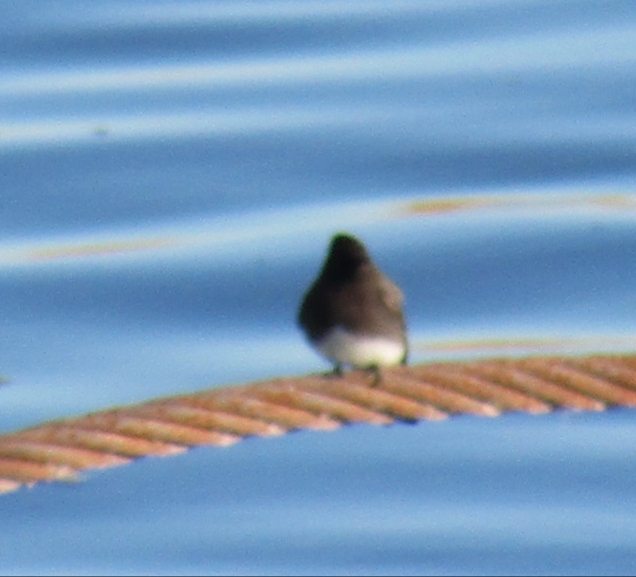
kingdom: Animalia
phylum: Chordata
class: Aves
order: Passeriformes
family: Tyrannidae
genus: Sayornis
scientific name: Sayornis nigricans
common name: Black phoebe
